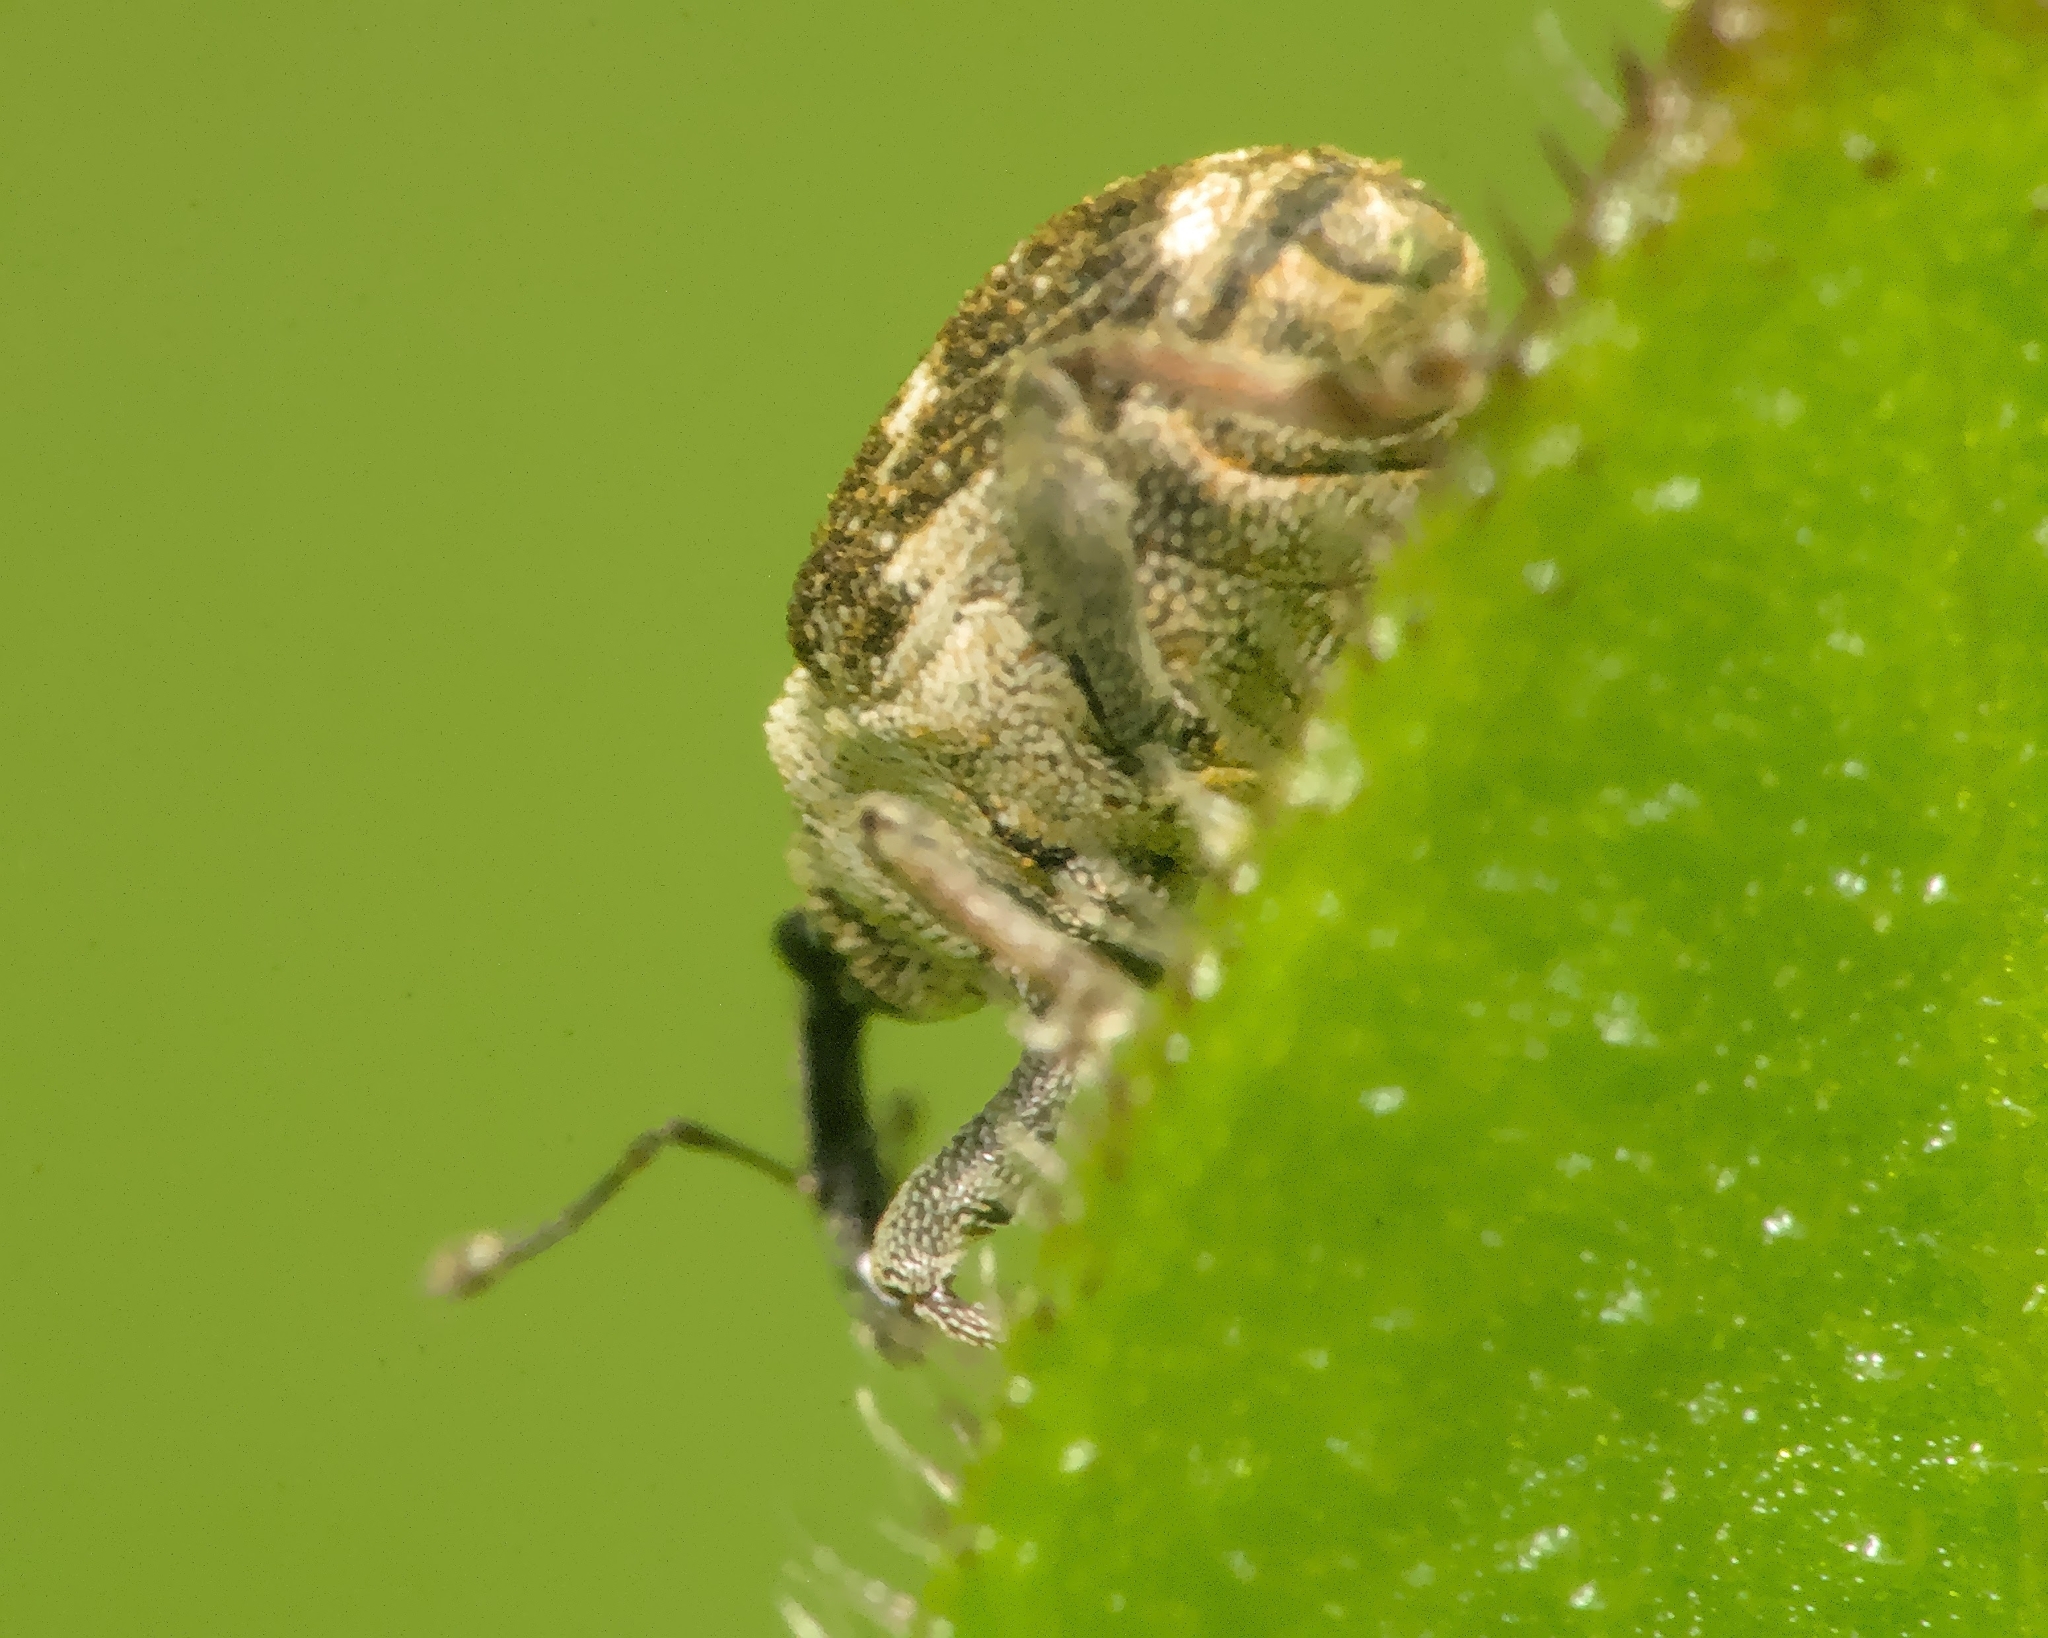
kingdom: Animalia
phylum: Arthropoda
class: Insecta
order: Coleoptera
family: Curculionidae
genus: Nedyus
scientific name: Nedyus quadrimaculatus
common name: Small nettle weevil
